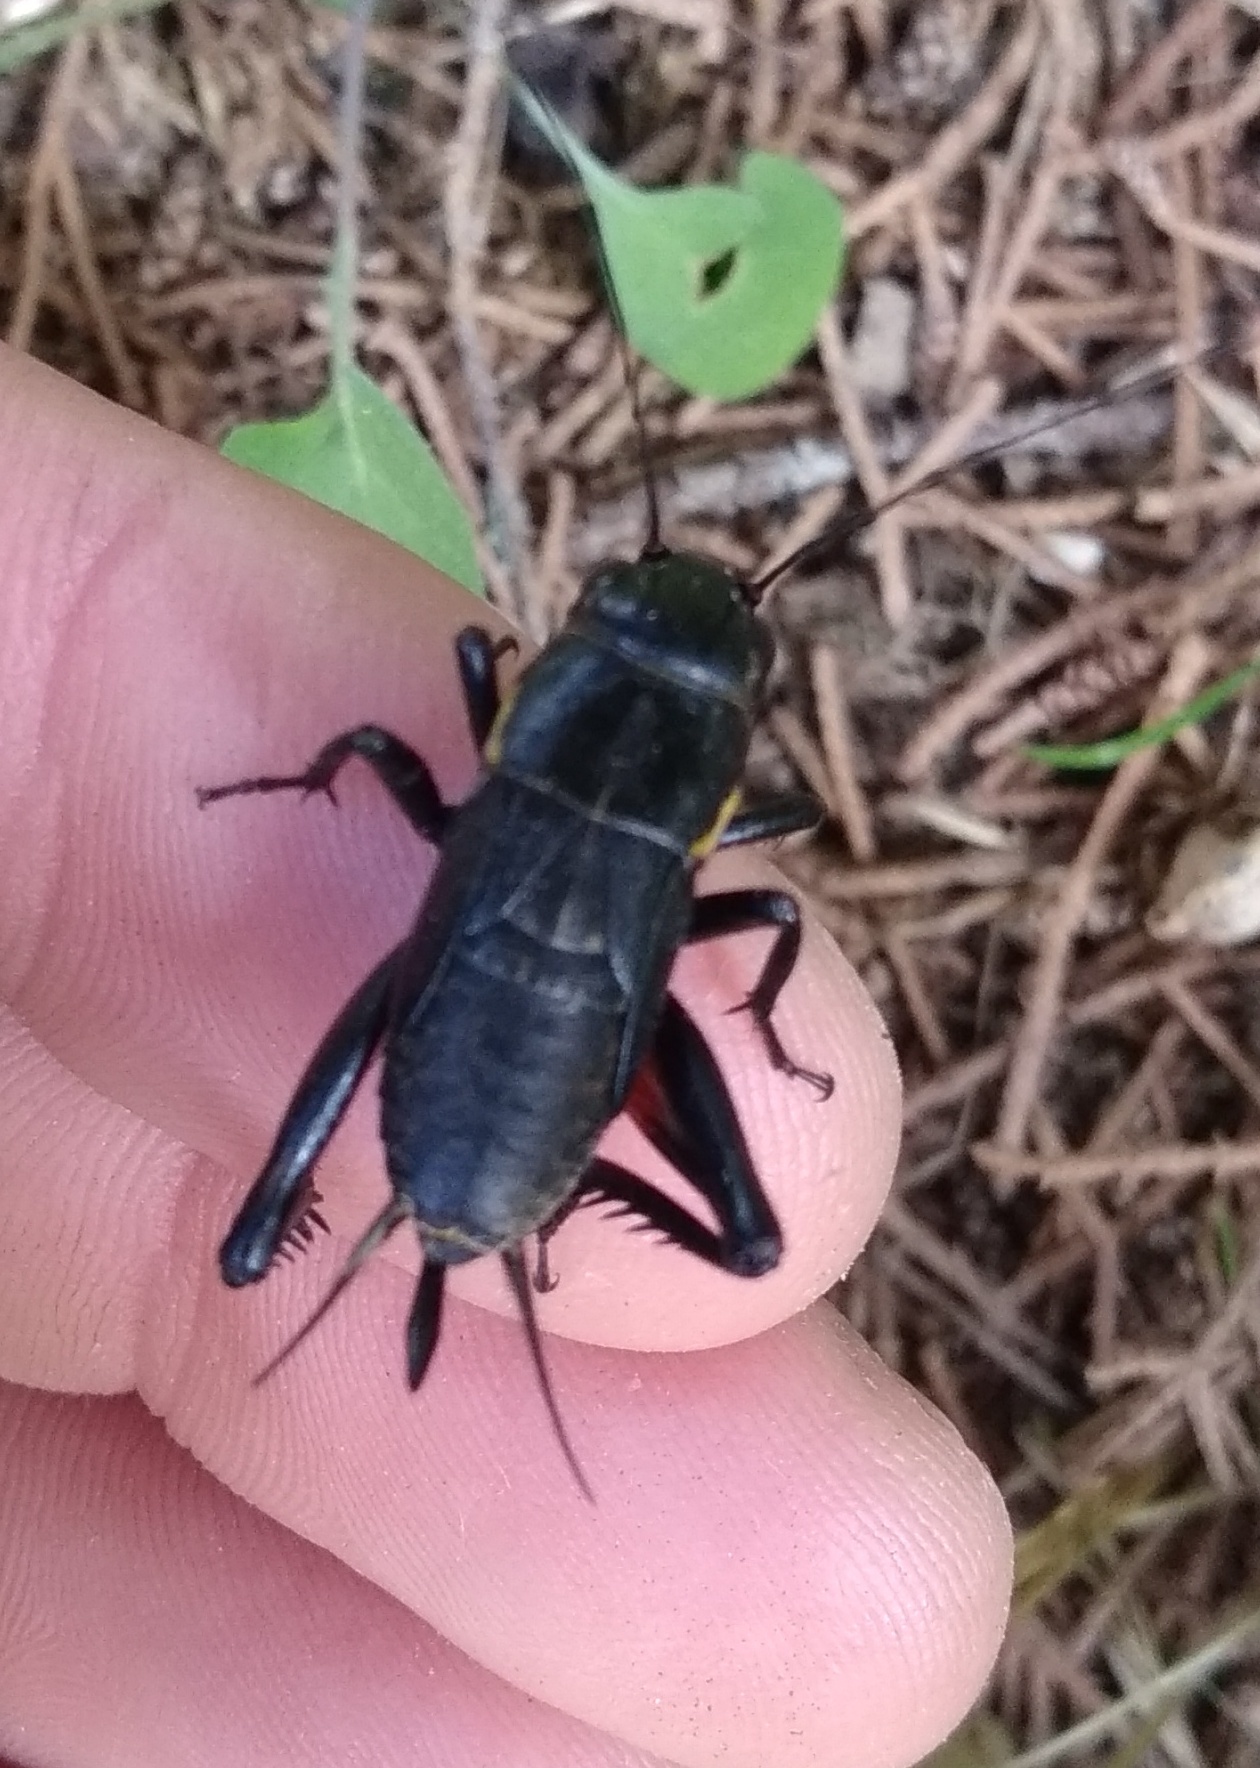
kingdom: Animalia
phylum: Arthropoda
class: Insecta
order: Orthoptera
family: Gryllidae
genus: Gryllus
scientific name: Gryllus bimaculatus
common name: Two-spotted cricket
